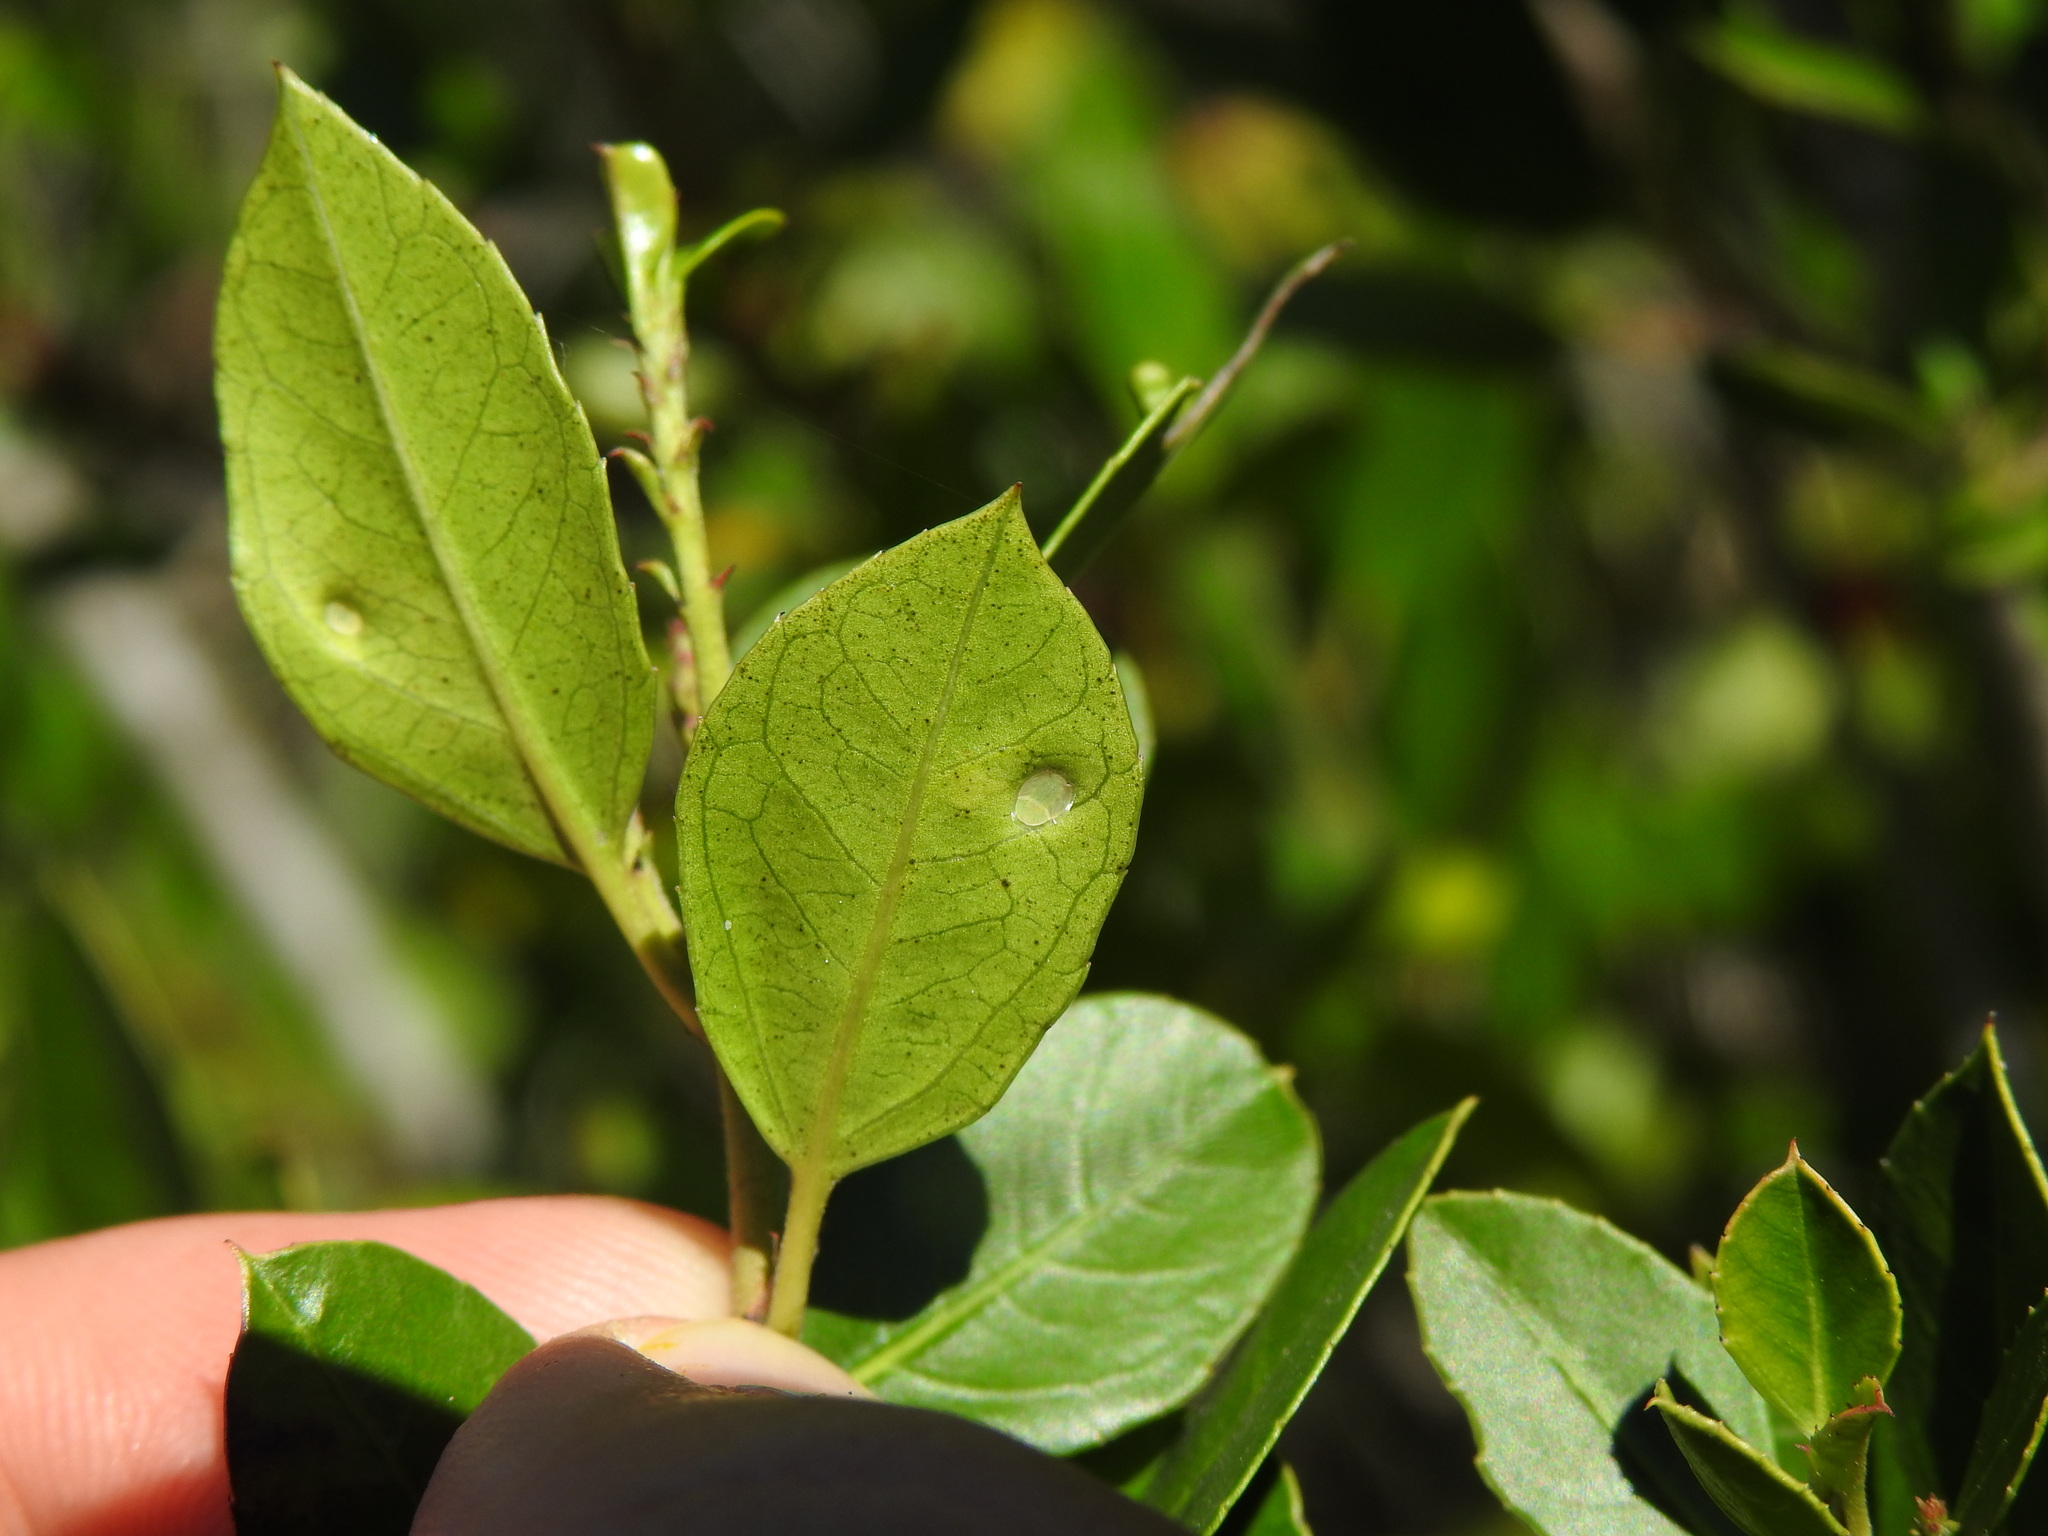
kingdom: Animalia
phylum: Arthropoda
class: Insecta
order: Hemiptera
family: Triozidae
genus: Trioza
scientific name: Trioza kiefferi
